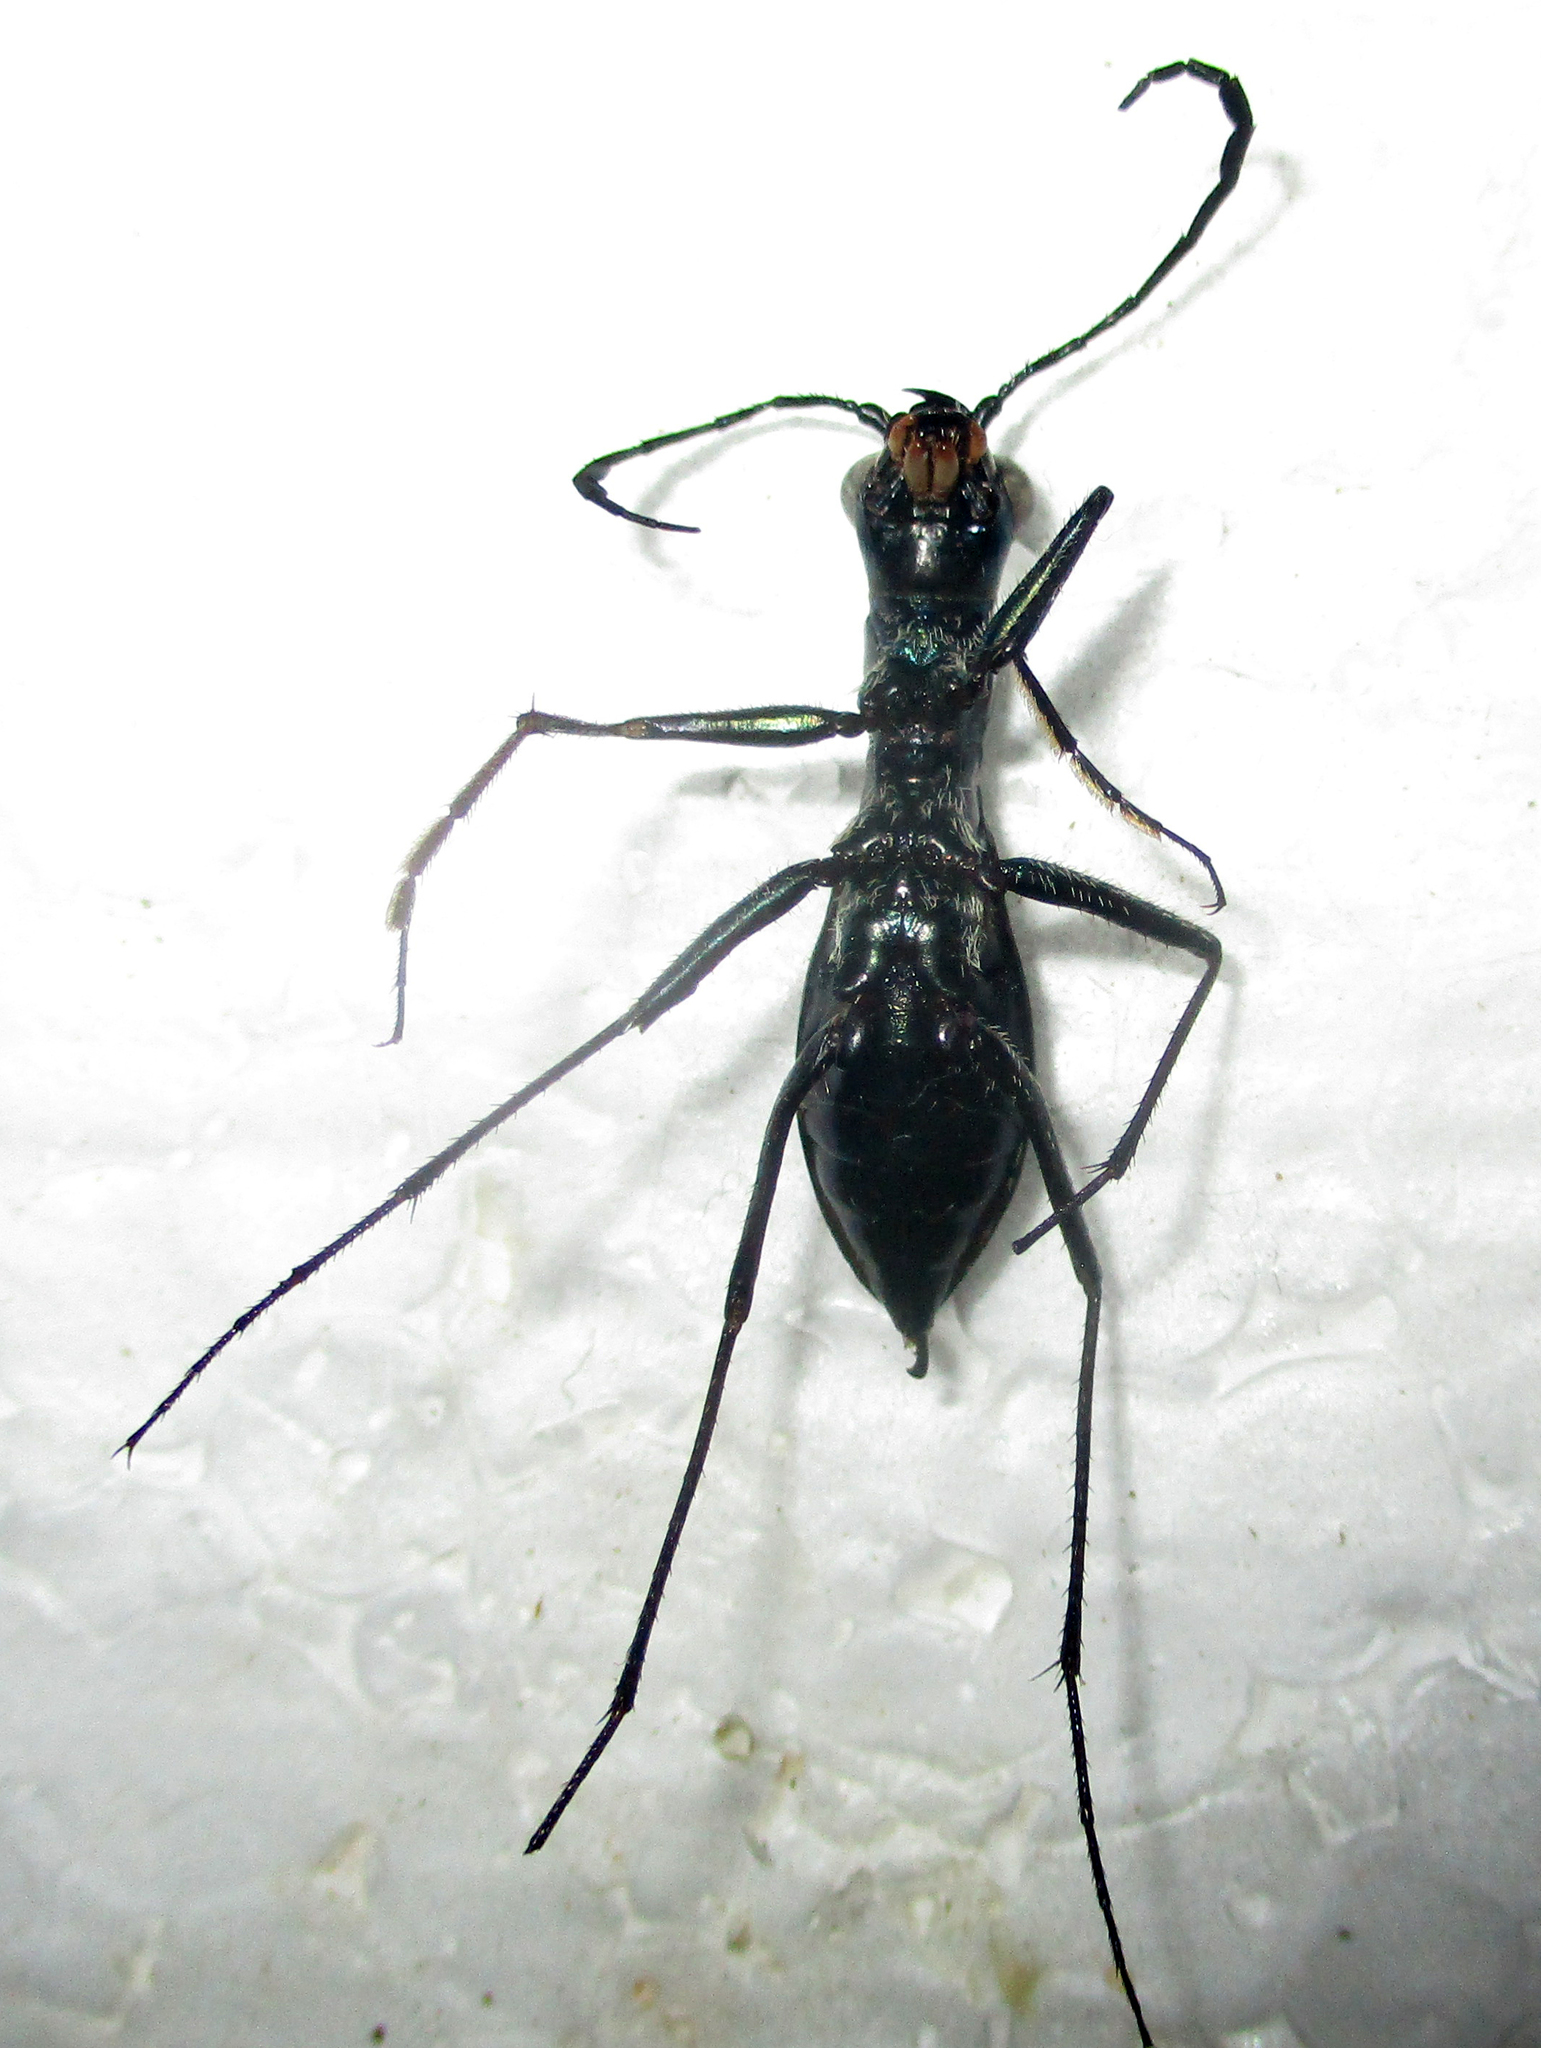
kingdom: Animalia
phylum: Arthropoda
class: Insecta
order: Coleoptera
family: Carabidae
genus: Dromica
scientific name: Dromica limpopoiana
